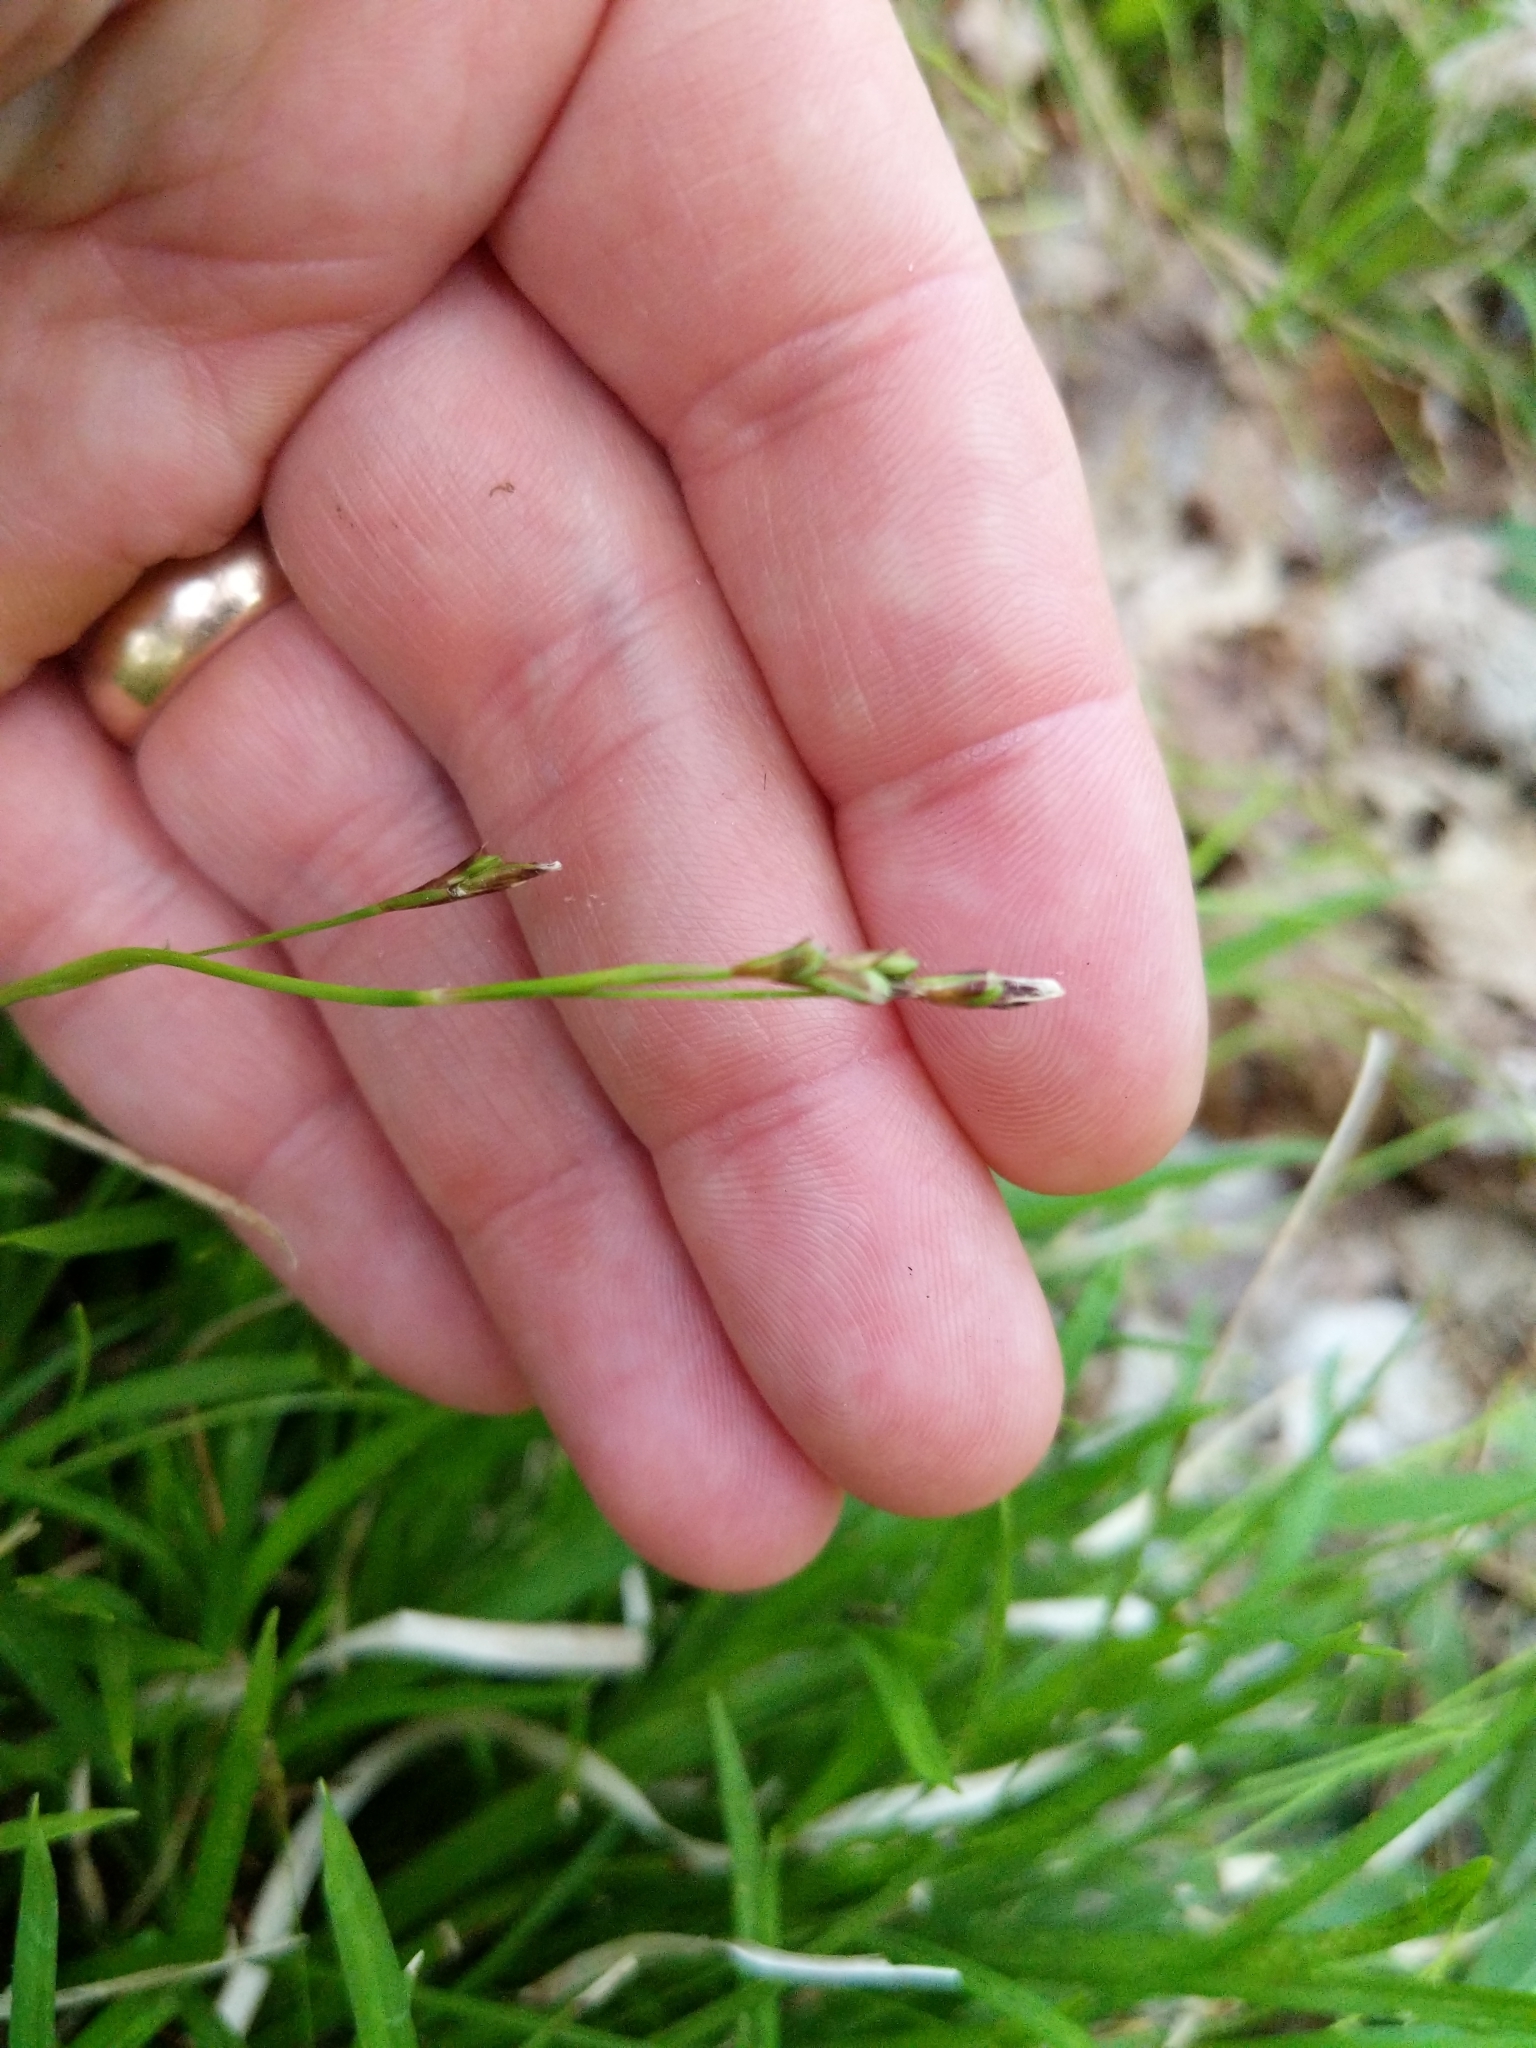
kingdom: Plantae
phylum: Tracheophyta
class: Liliopsida
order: Poales
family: Cyperaceae
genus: Carex
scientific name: Carex pedunculata
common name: Pedunculate sedge
